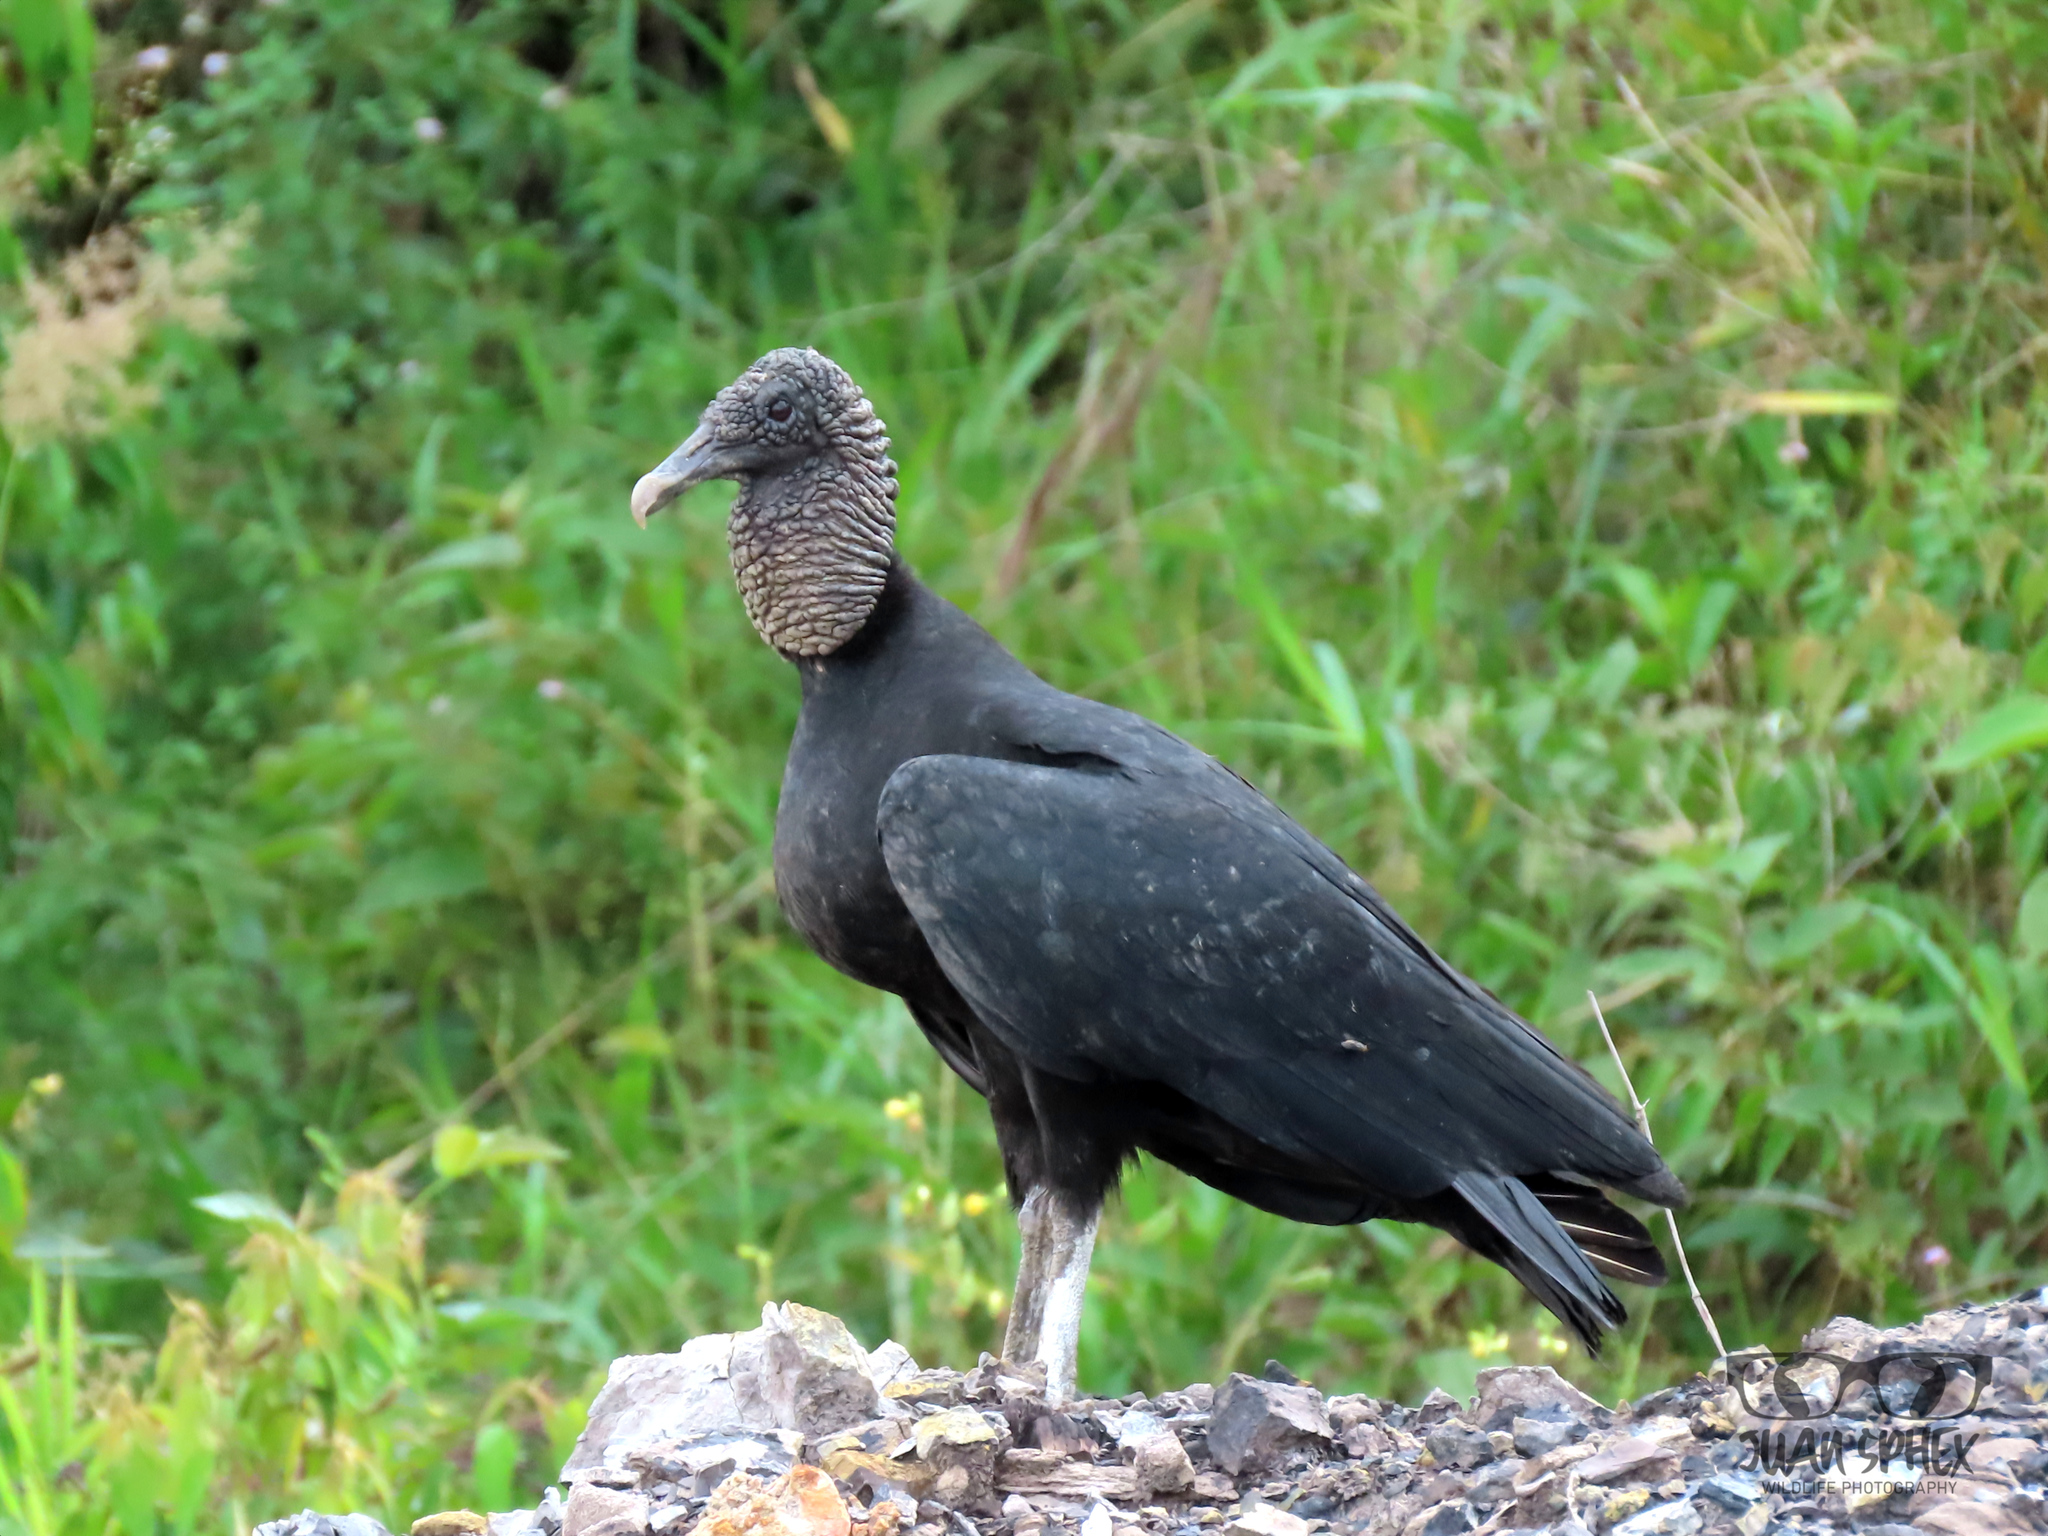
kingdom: Animalia
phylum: Chordata
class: Aves
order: Accipitriformes
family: Cathartidae
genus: Coragyps
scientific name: Coragyps atratus
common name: Black vulture
